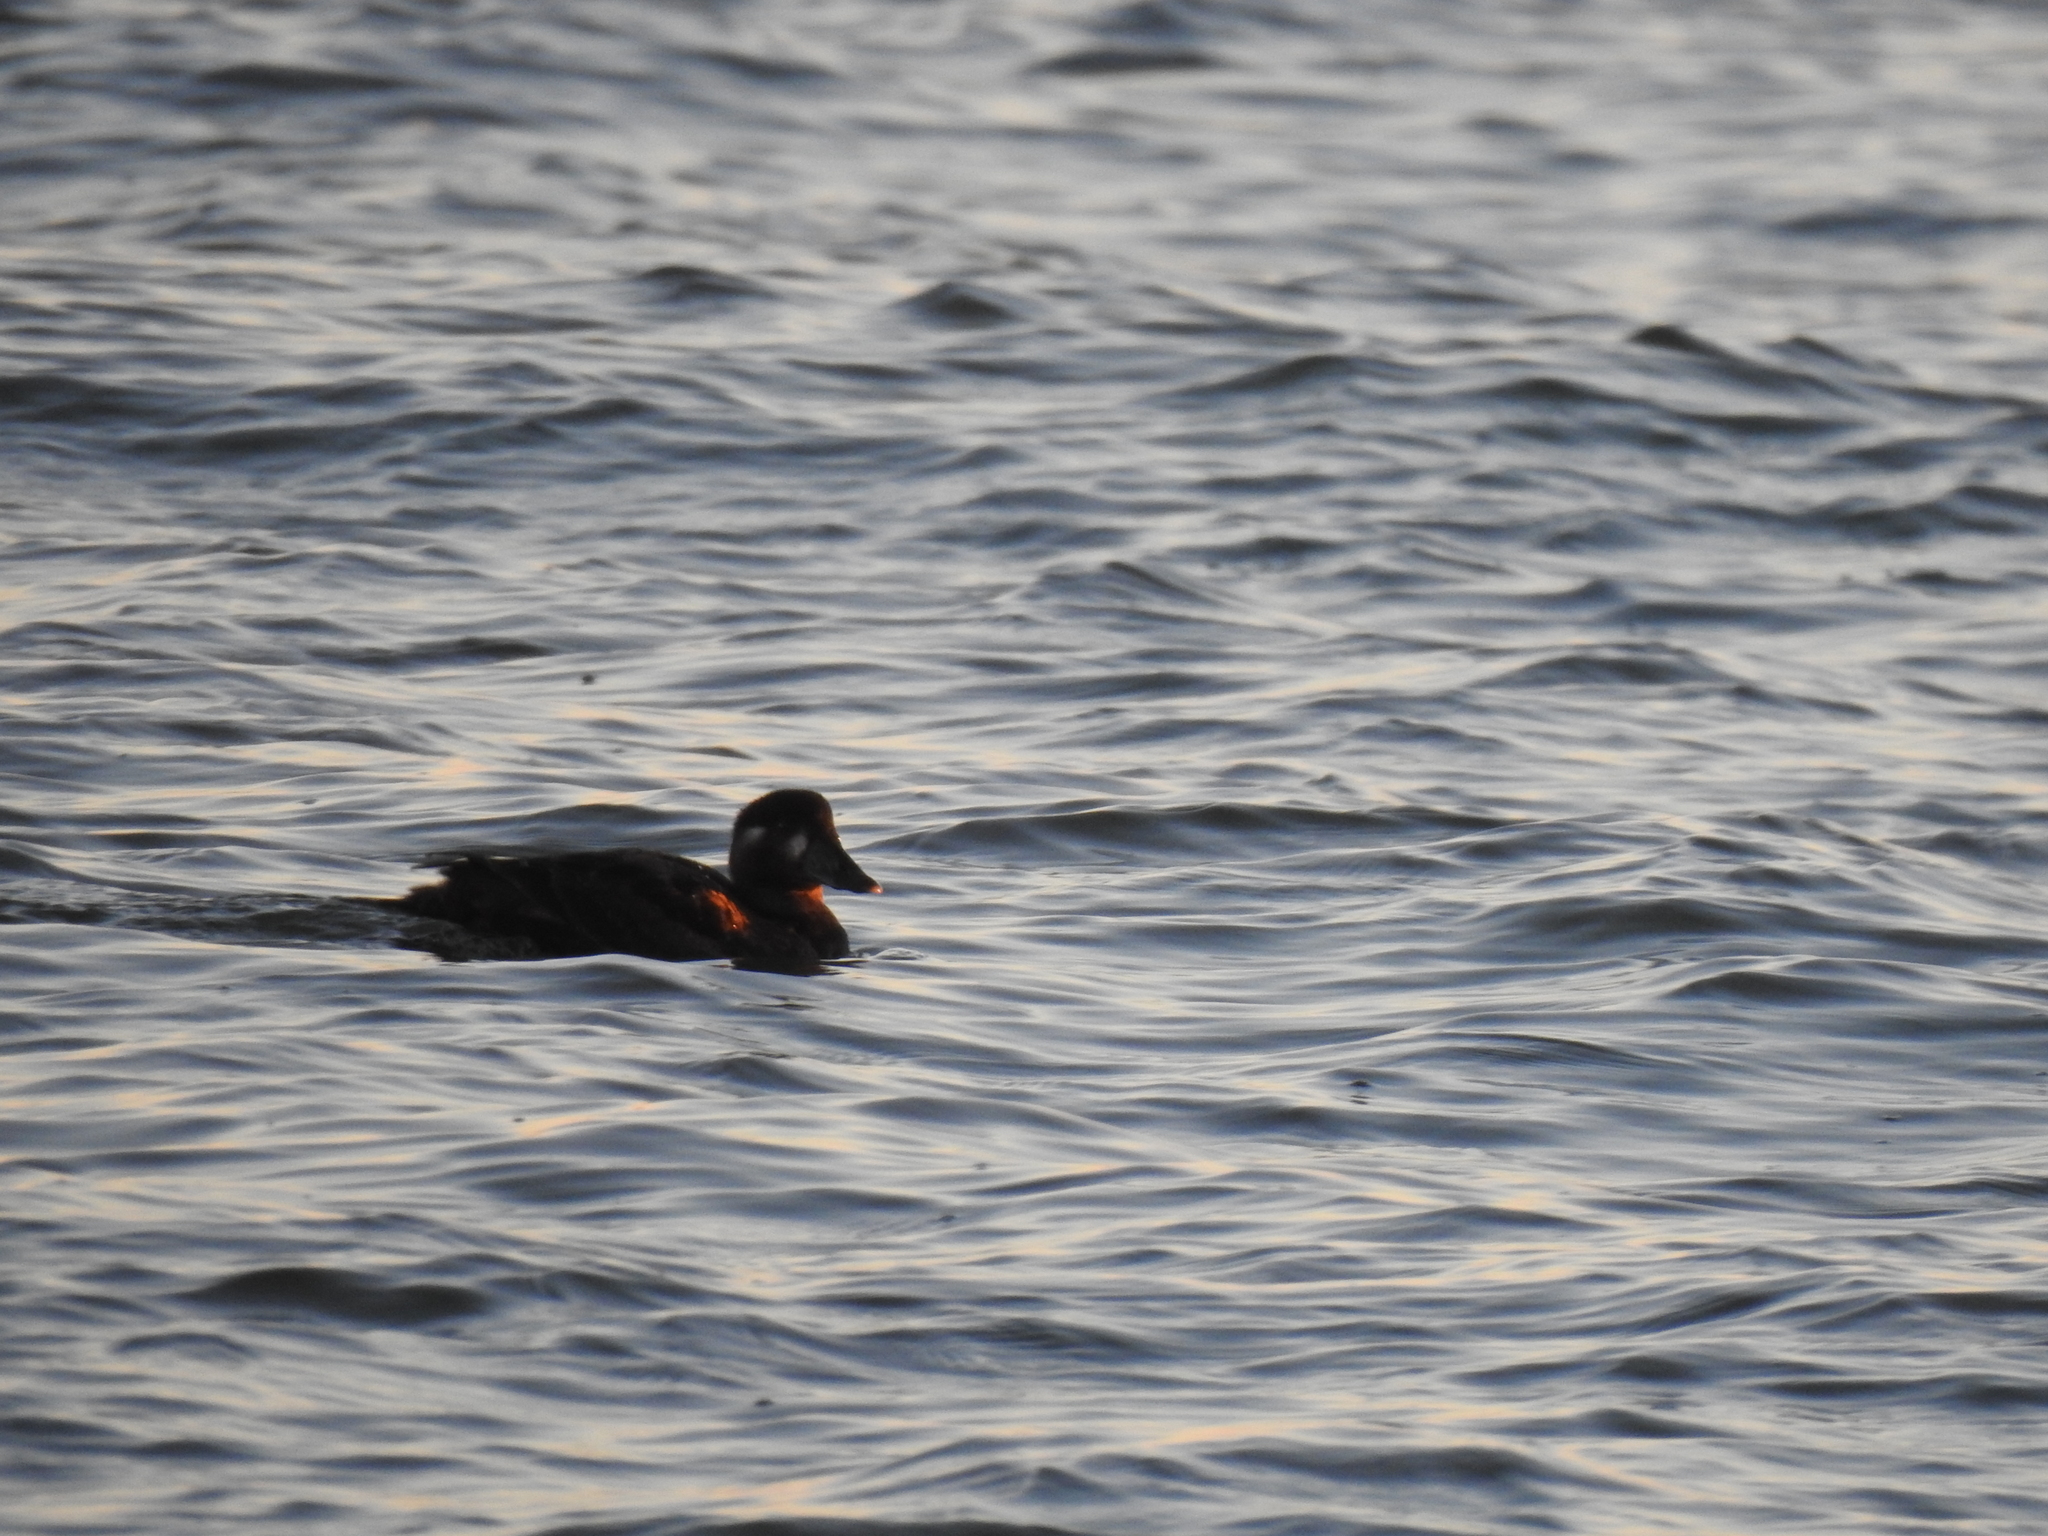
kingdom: Animalia
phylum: Chordata
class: Aves
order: Anseriformes
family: Anatidae
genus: Melanitta
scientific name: Melanitta perspicillata
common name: Surf scoter
